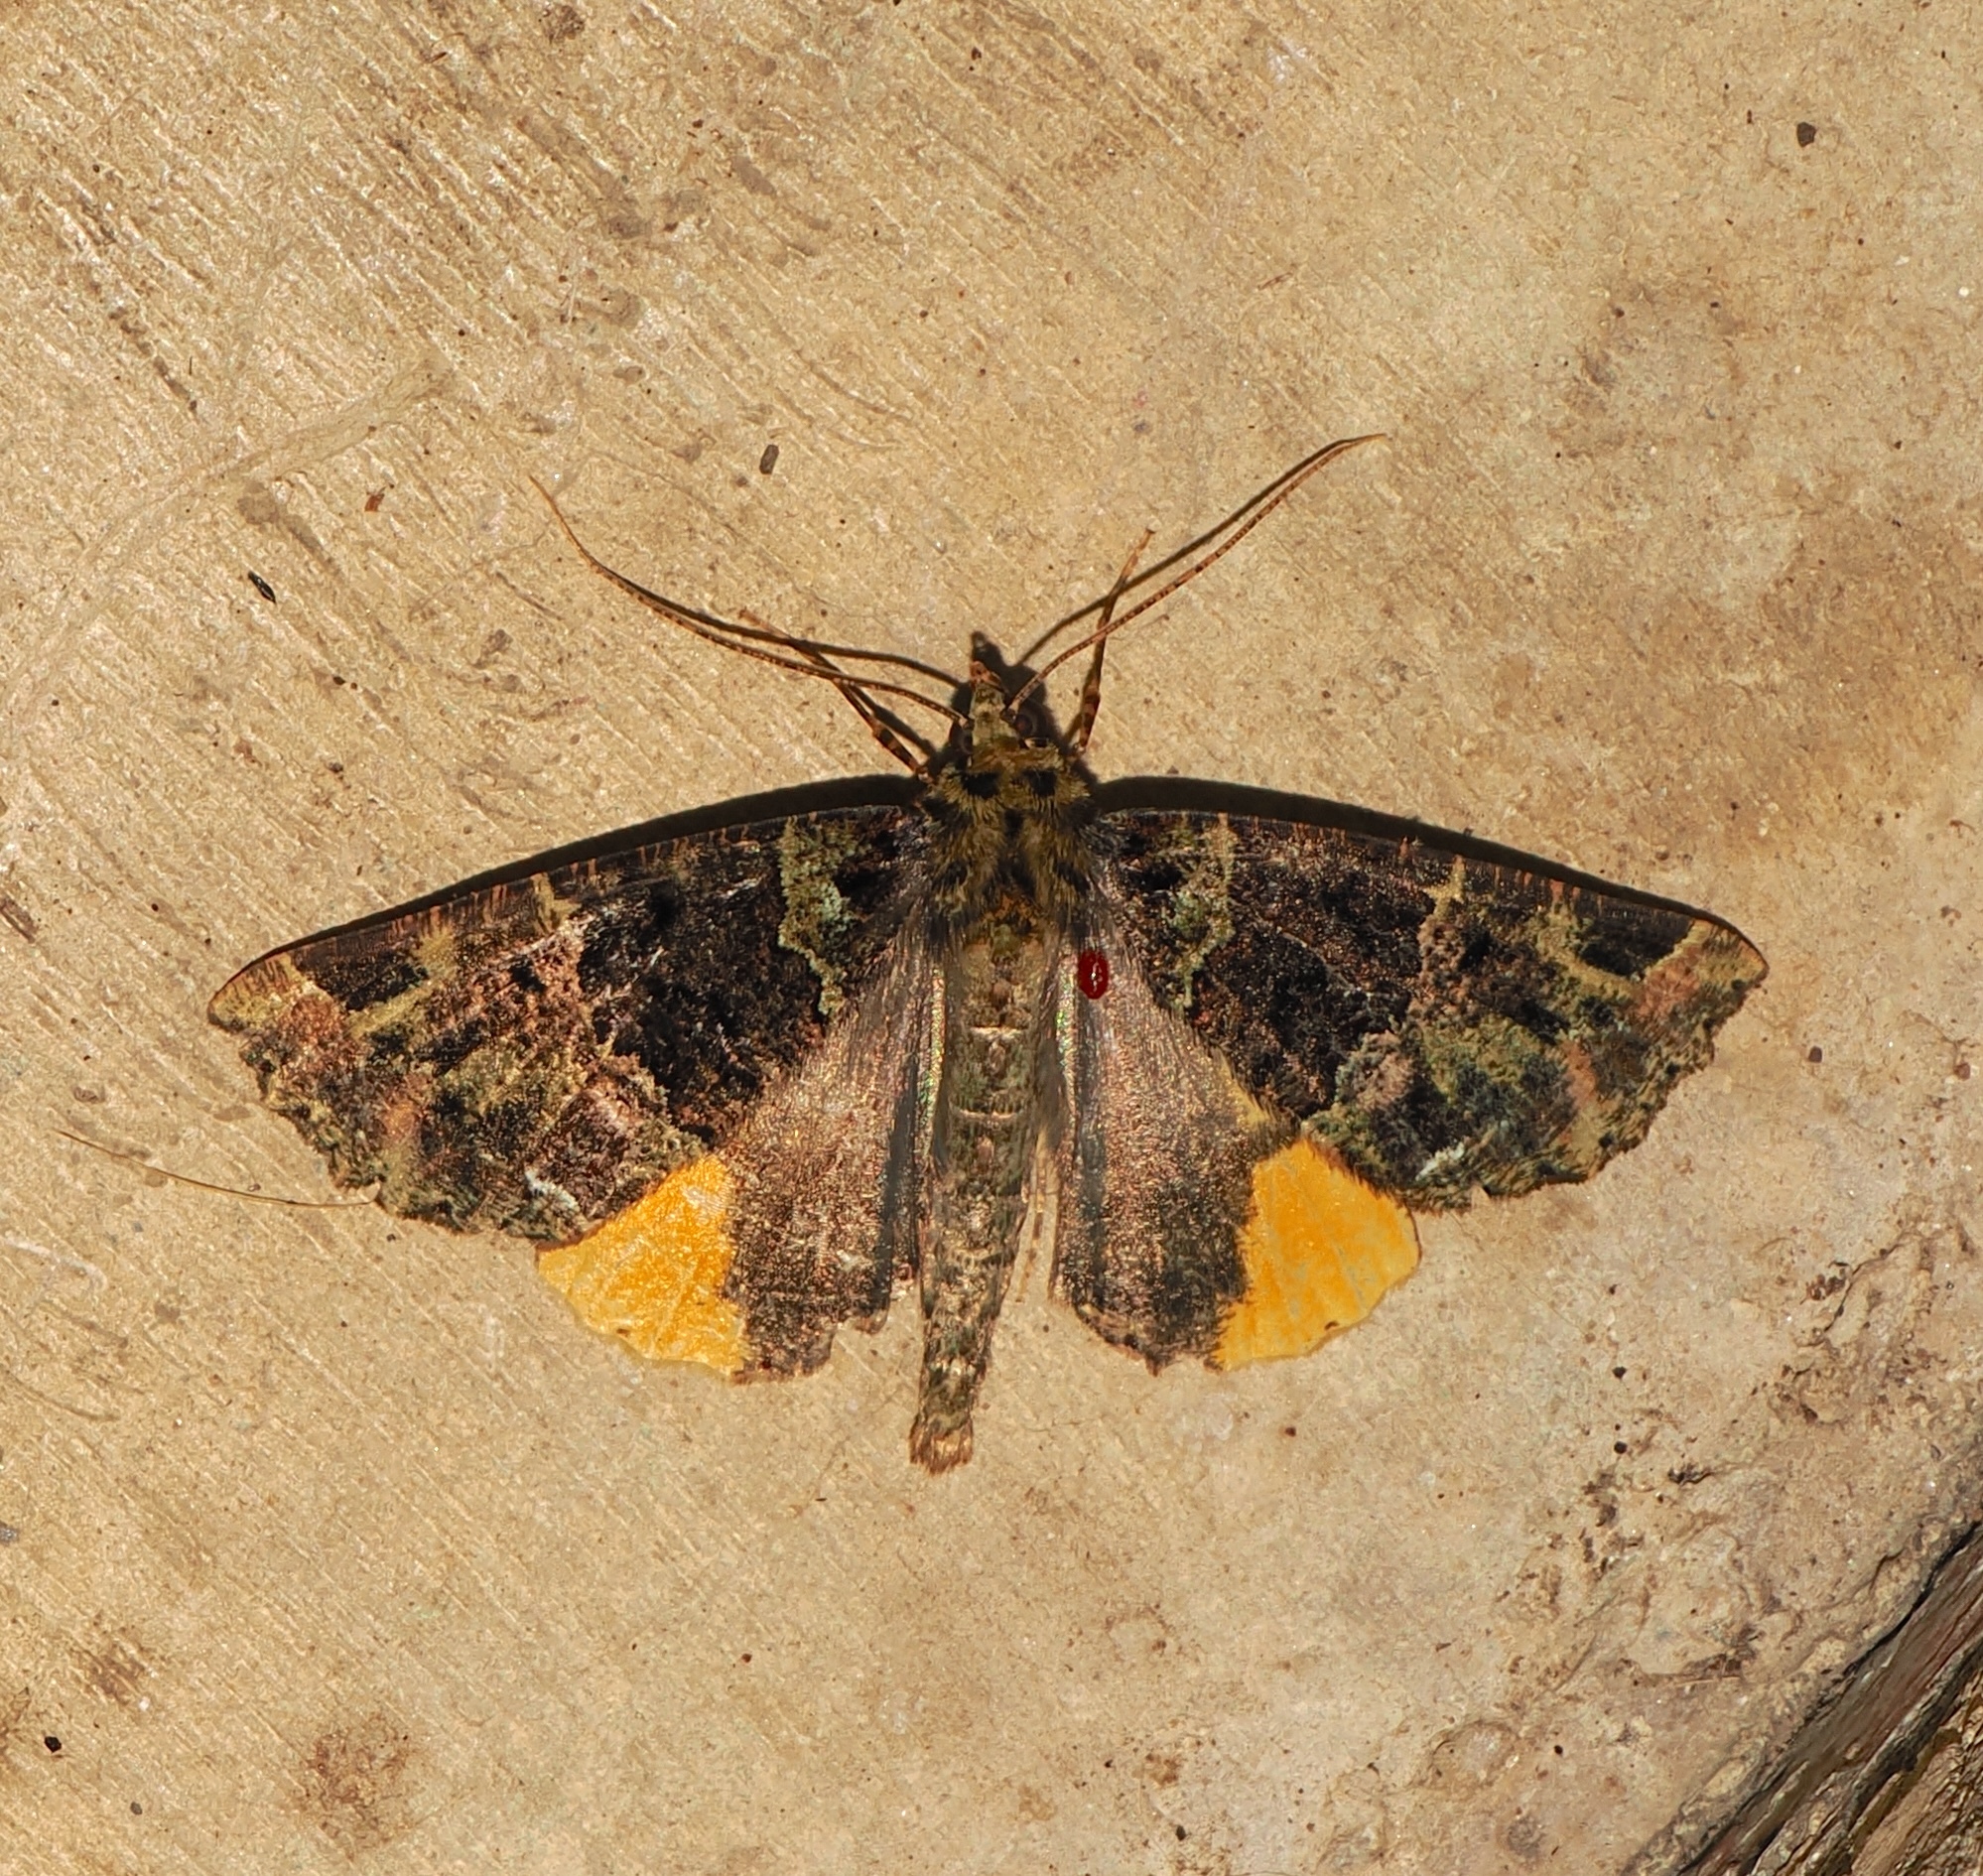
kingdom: Animalia
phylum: Arthropoda
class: Insecta
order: Lepidoptera
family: Geometridae
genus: Chrysomima
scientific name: Chrysomima semilutearia
